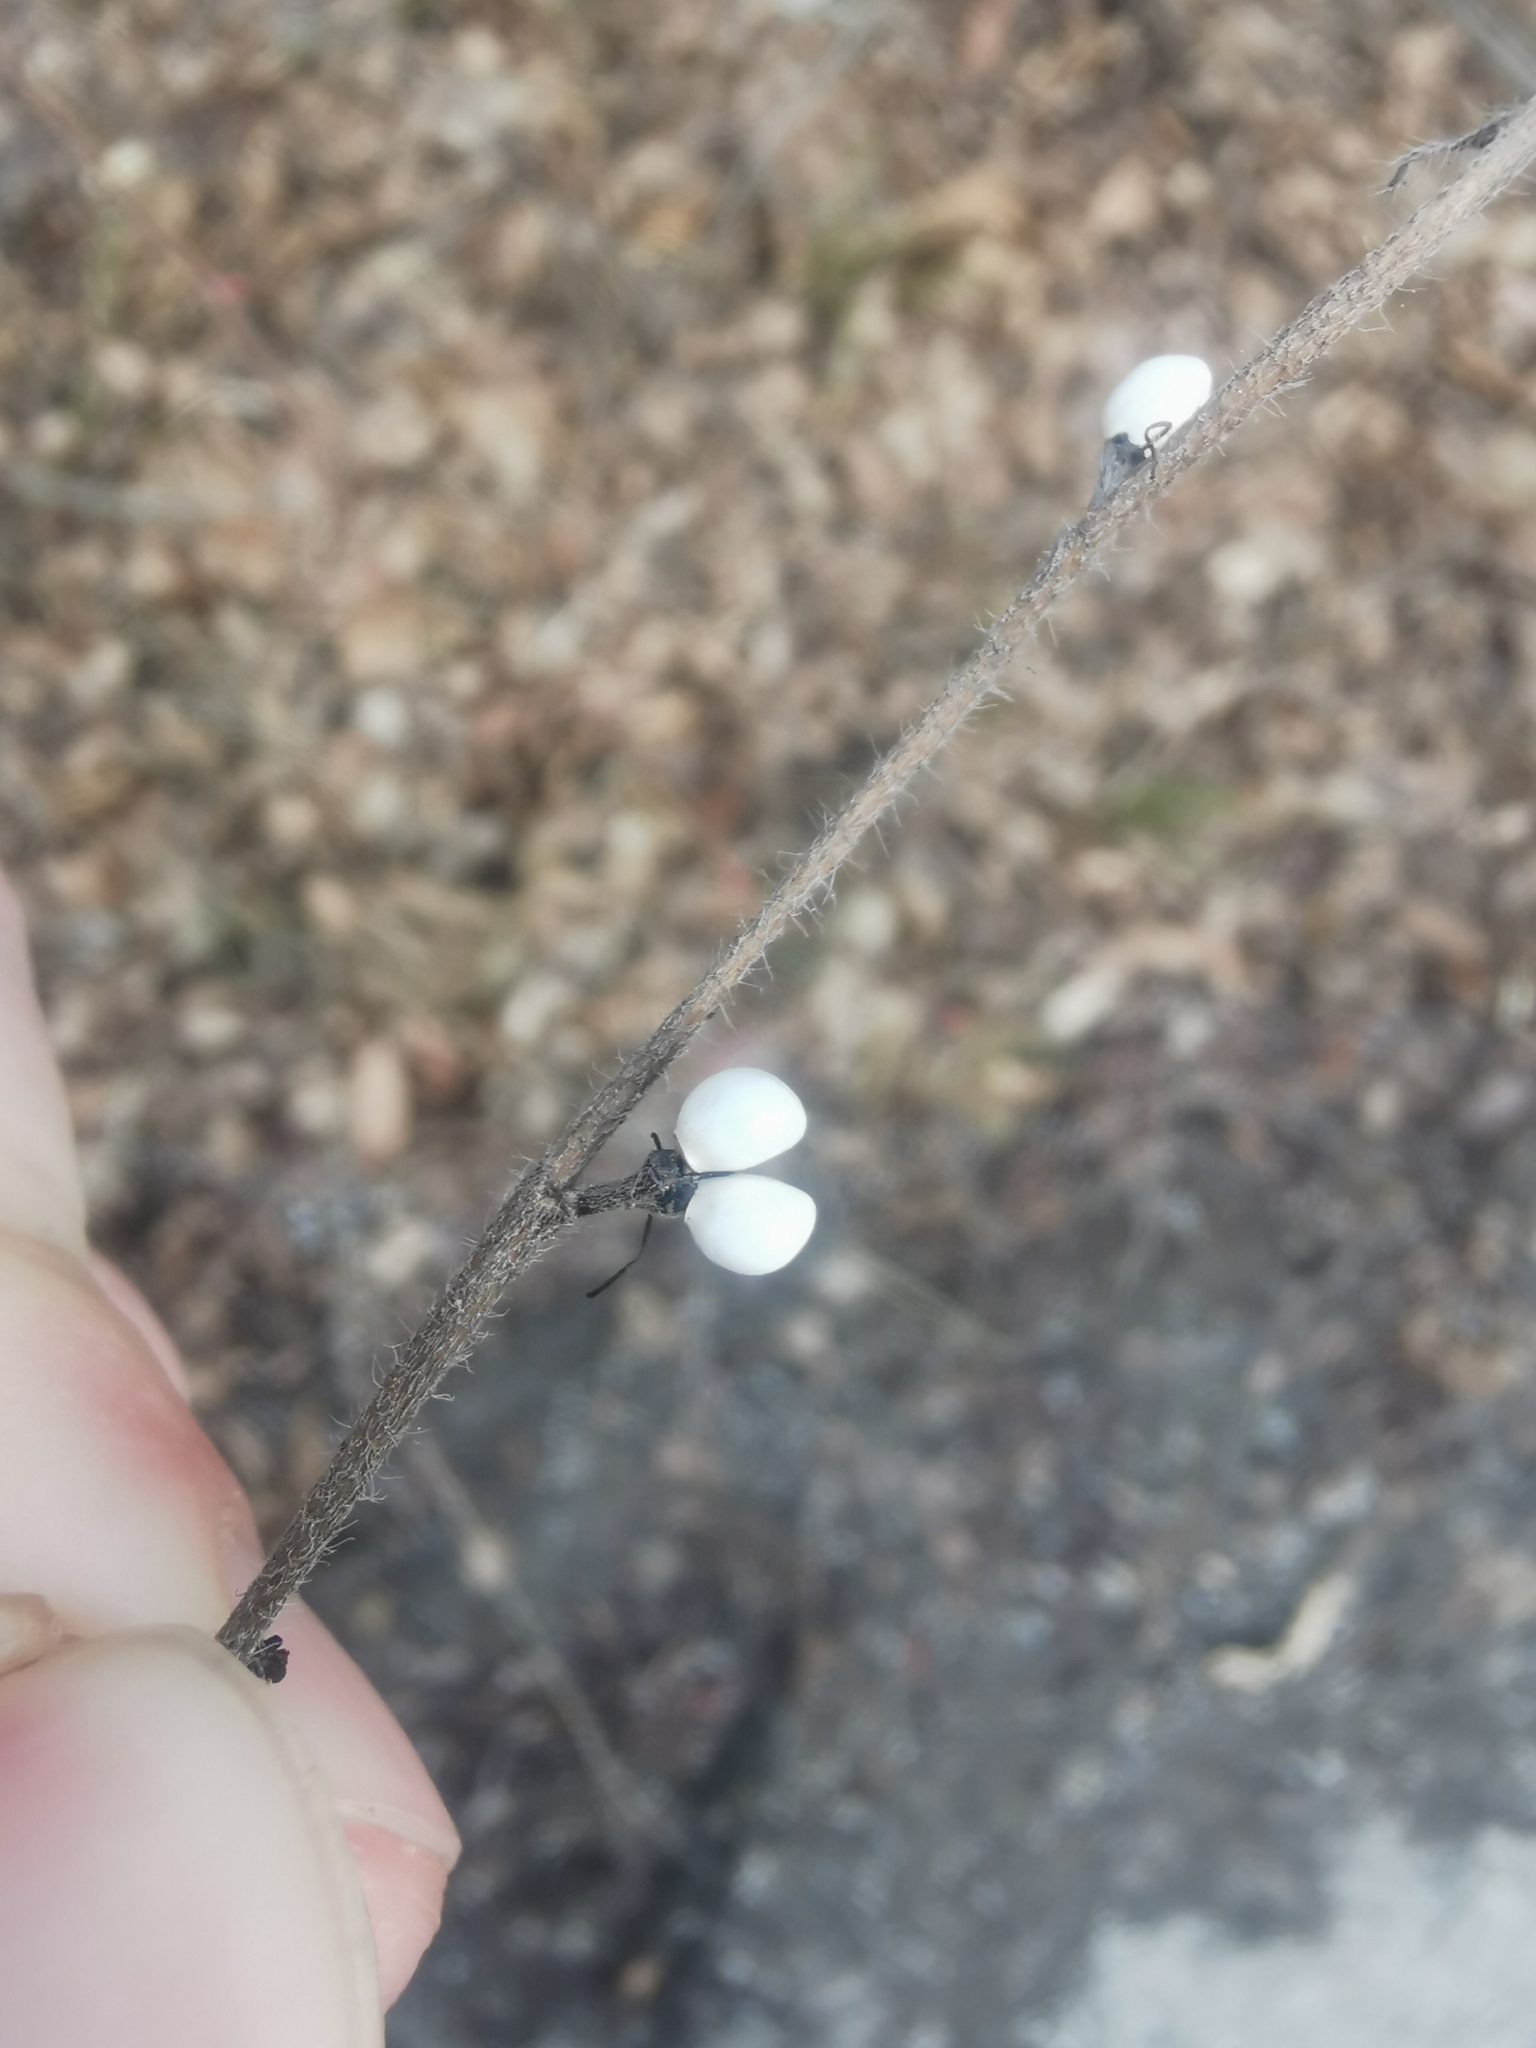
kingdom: Plantae
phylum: Tracheophyta
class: Magnoliopsida
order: Boraginales
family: Boraginaceae
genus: Aegonychon
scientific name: Aegonychon purpurocaeruleum
